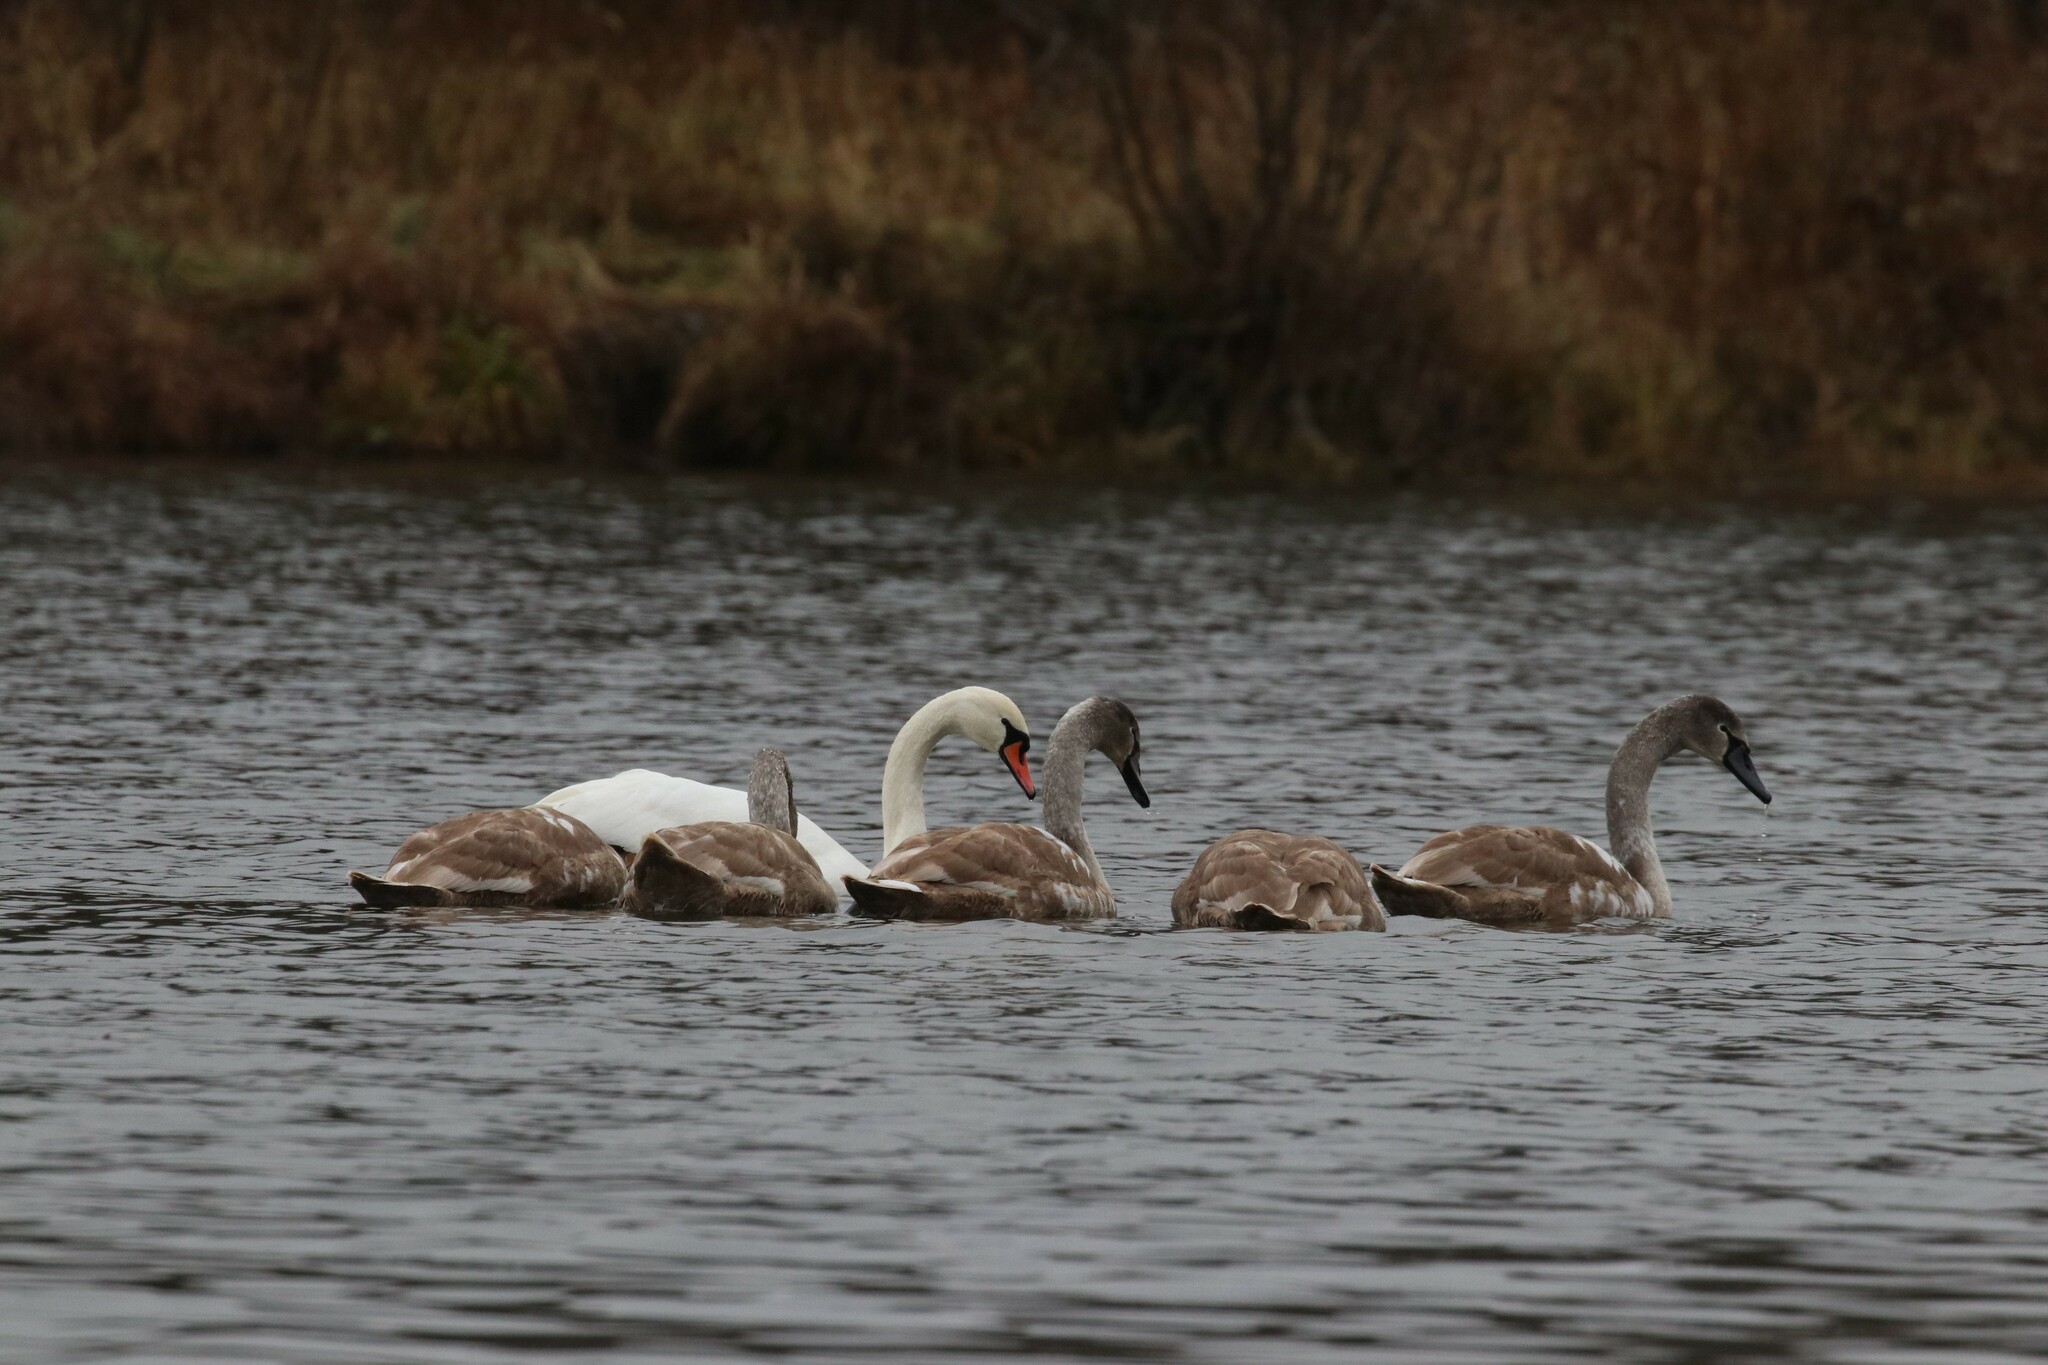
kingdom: Animalia
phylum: Chordata
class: Aves
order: Anseriformes
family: Anatidae
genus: Cygnus
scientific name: Cygnus olor
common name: Mute swan
